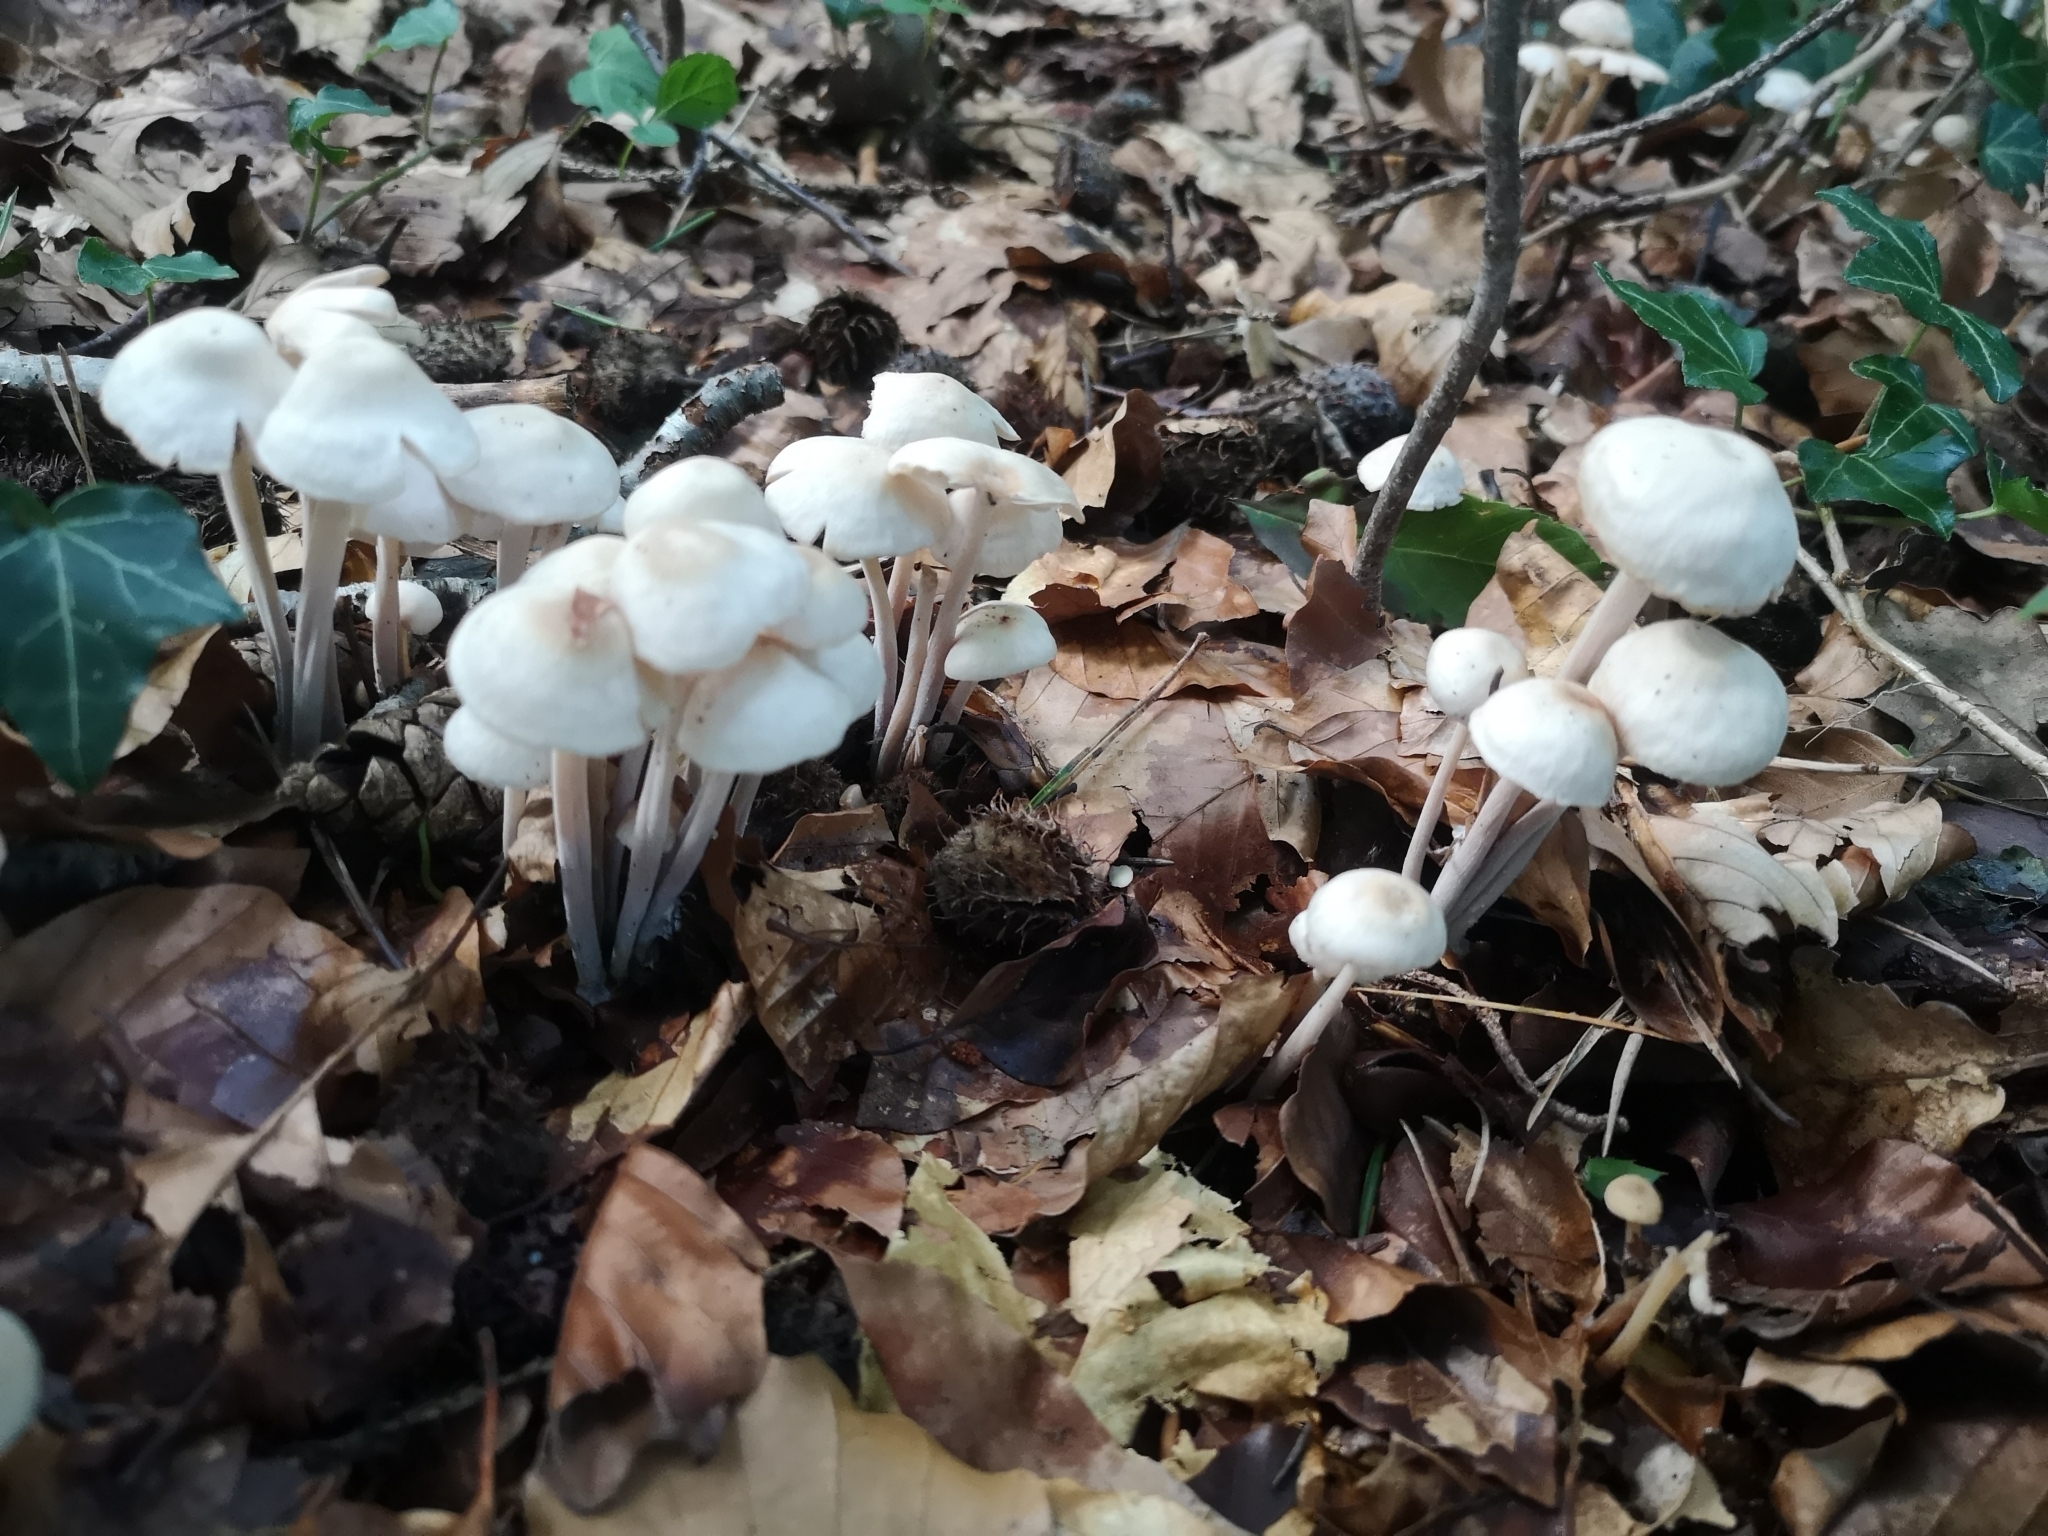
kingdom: Fungi
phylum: Basidiomycota
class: Agaricomycetes
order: Agaricales
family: Omphalotaceae
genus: Collybiopsis
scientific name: Collybiopsis confluens
